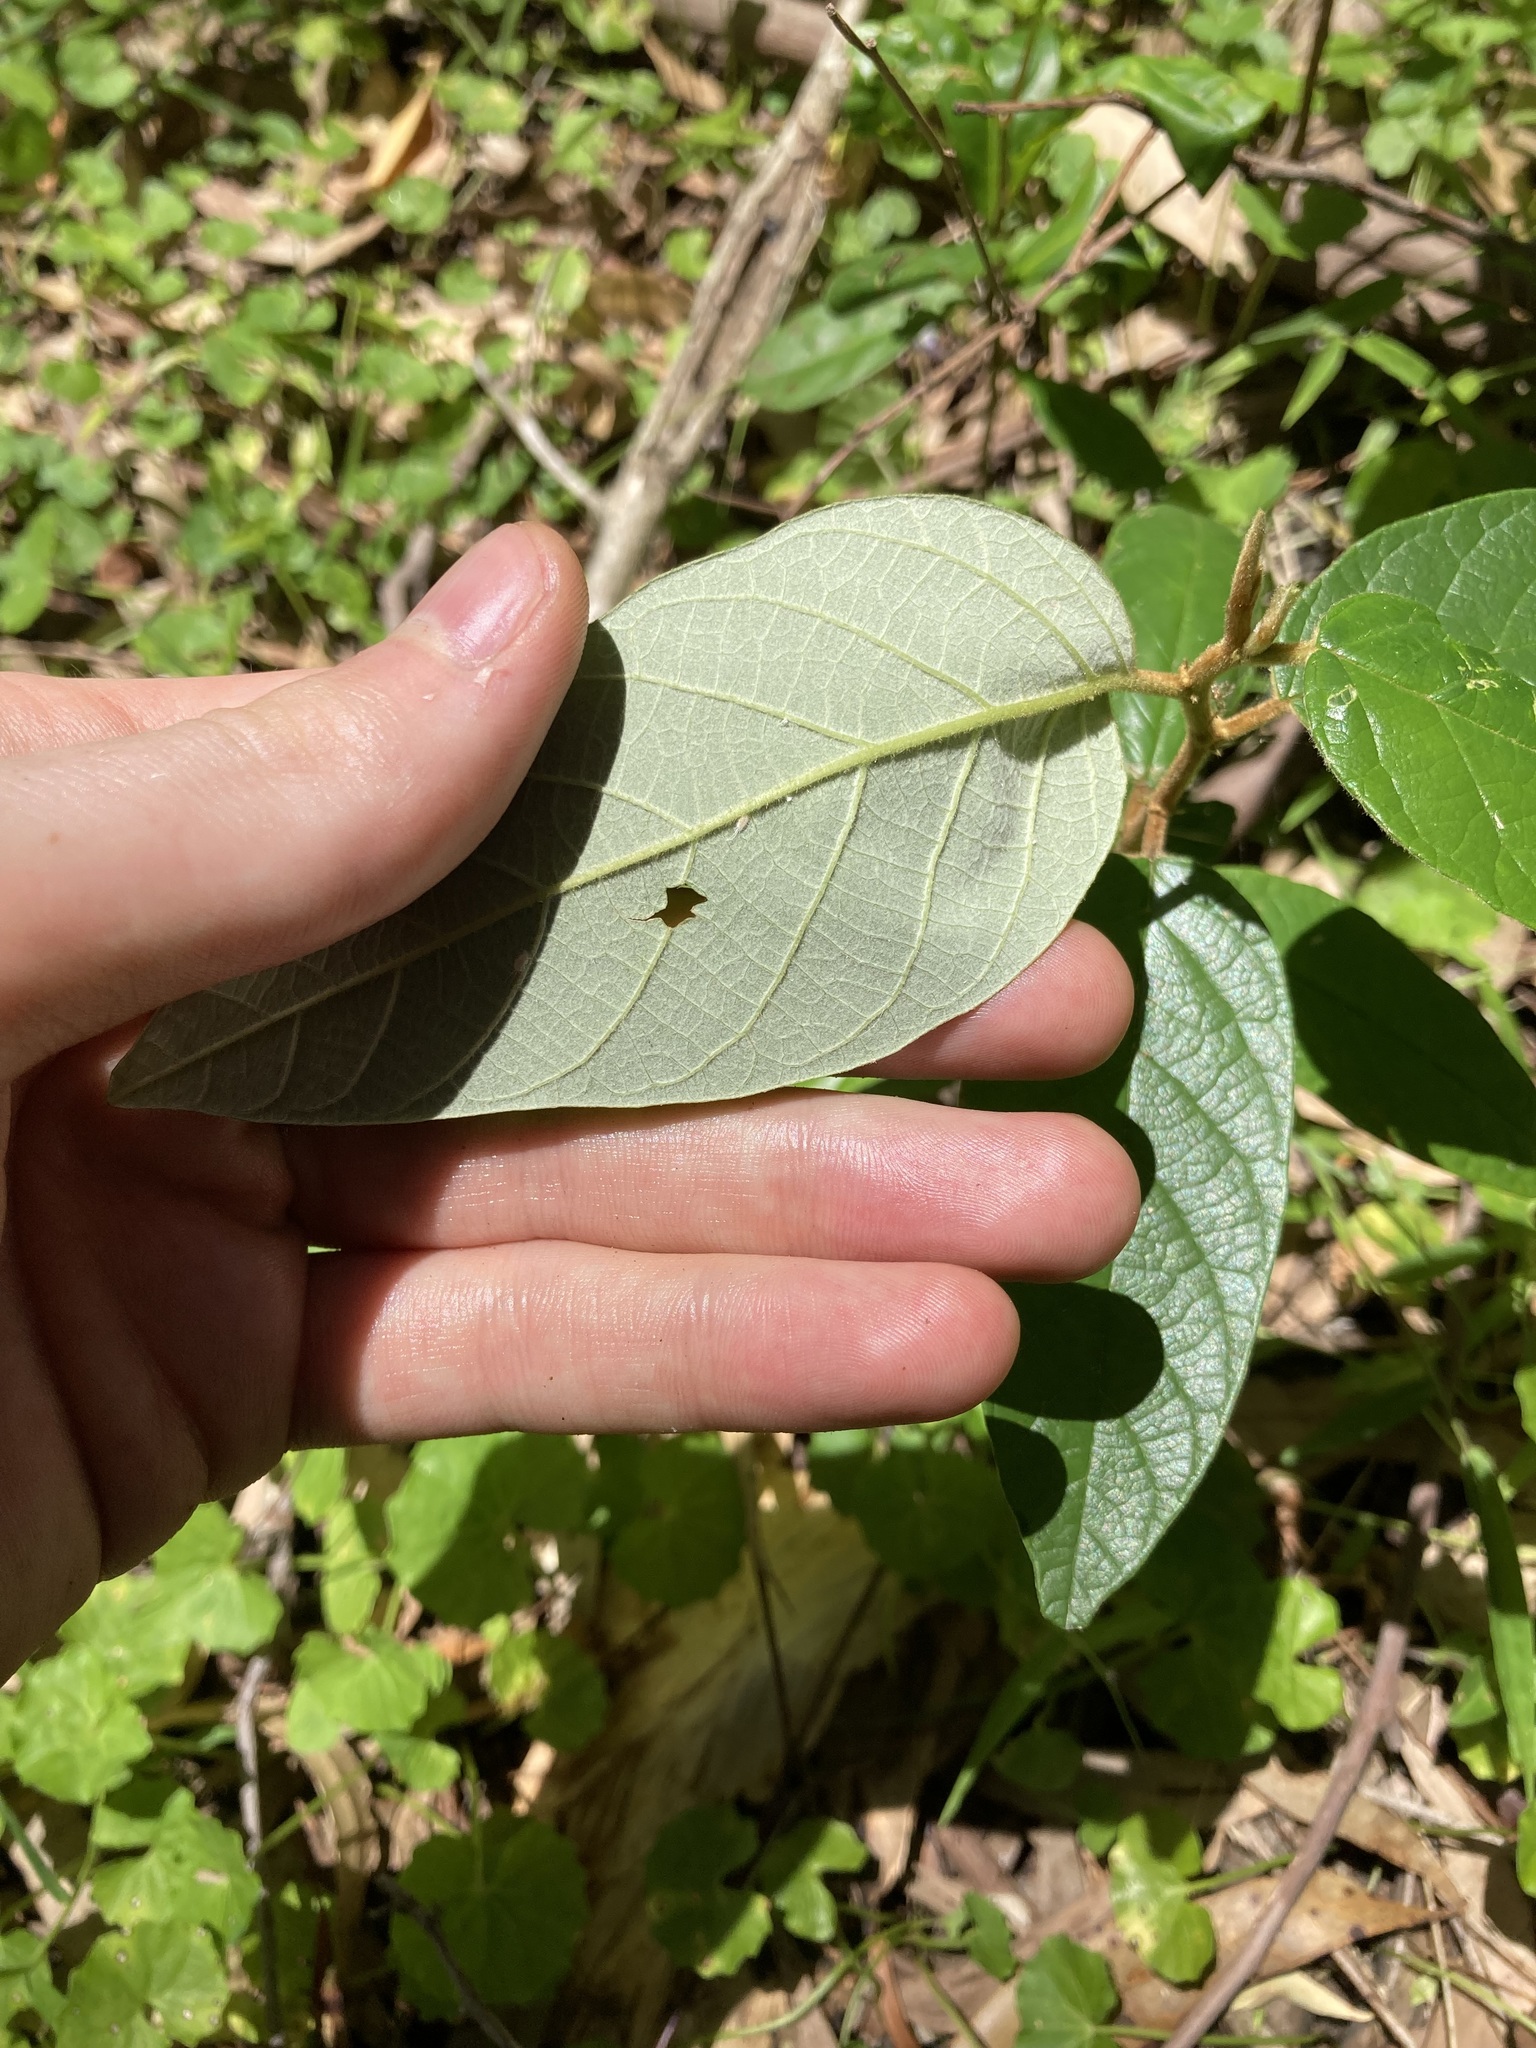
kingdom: Plantae
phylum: Tracheophyta
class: Magnoliopsida
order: Rosales
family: Rhamnaceae
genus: Alphitonia
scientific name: Alphitonia excelsa
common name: Red ash
